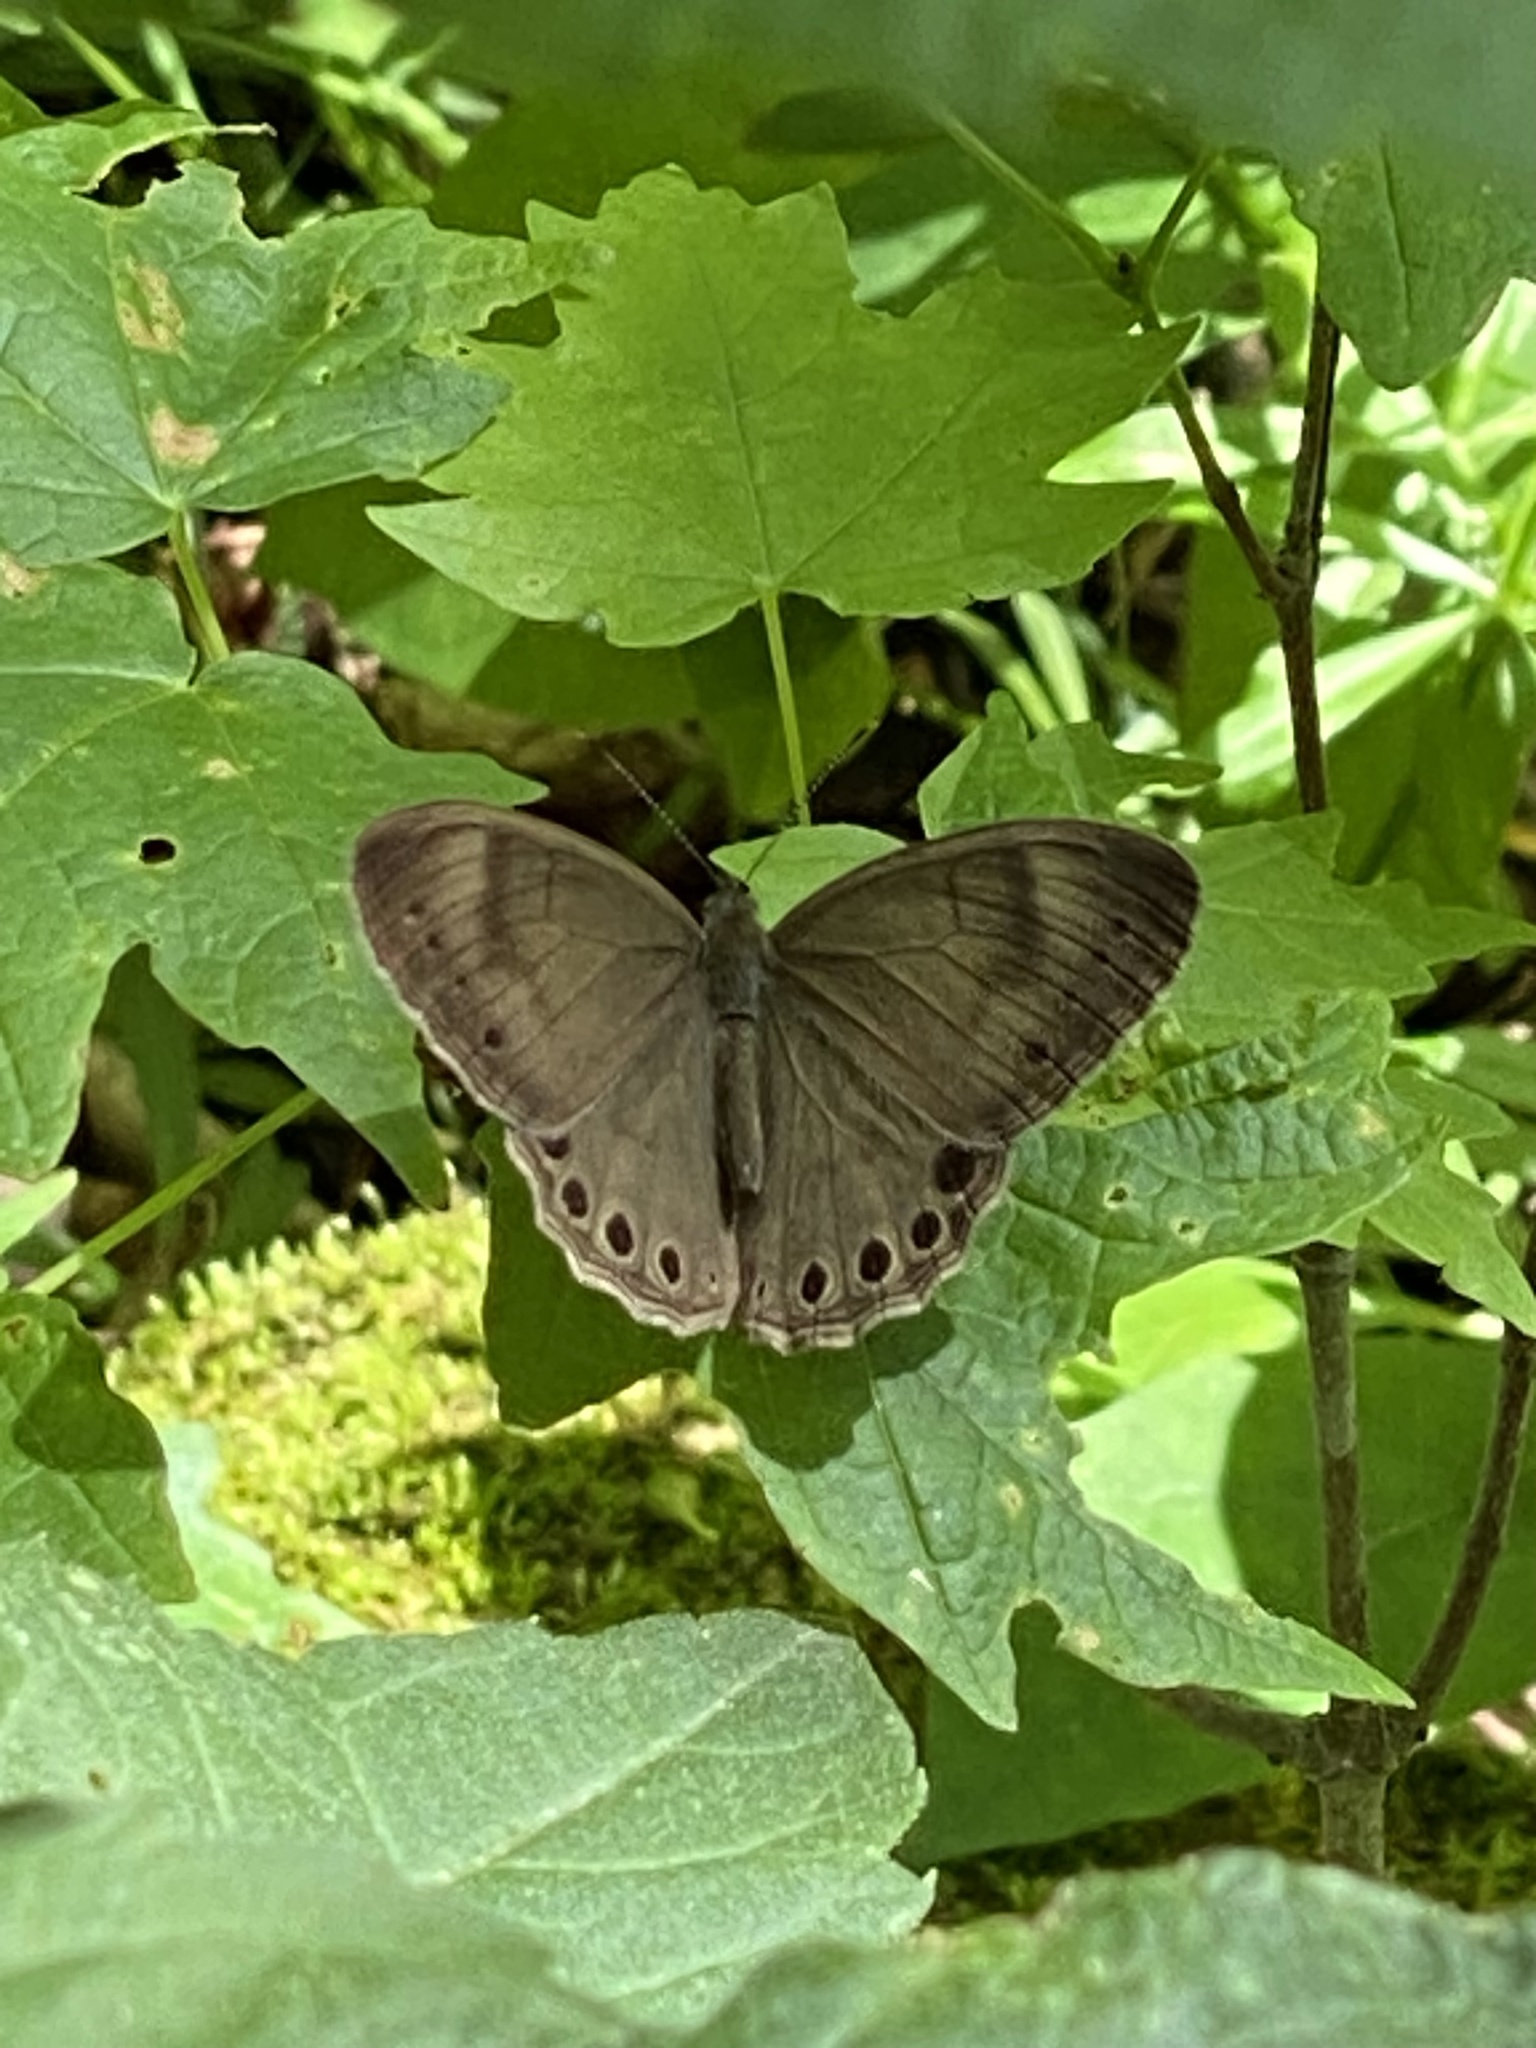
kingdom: Animalia
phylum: Arthropoda
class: Insecta
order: Lepidoptera
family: Nymphalidae
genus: Lethe
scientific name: Lethe eurydice
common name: Eyed brown
